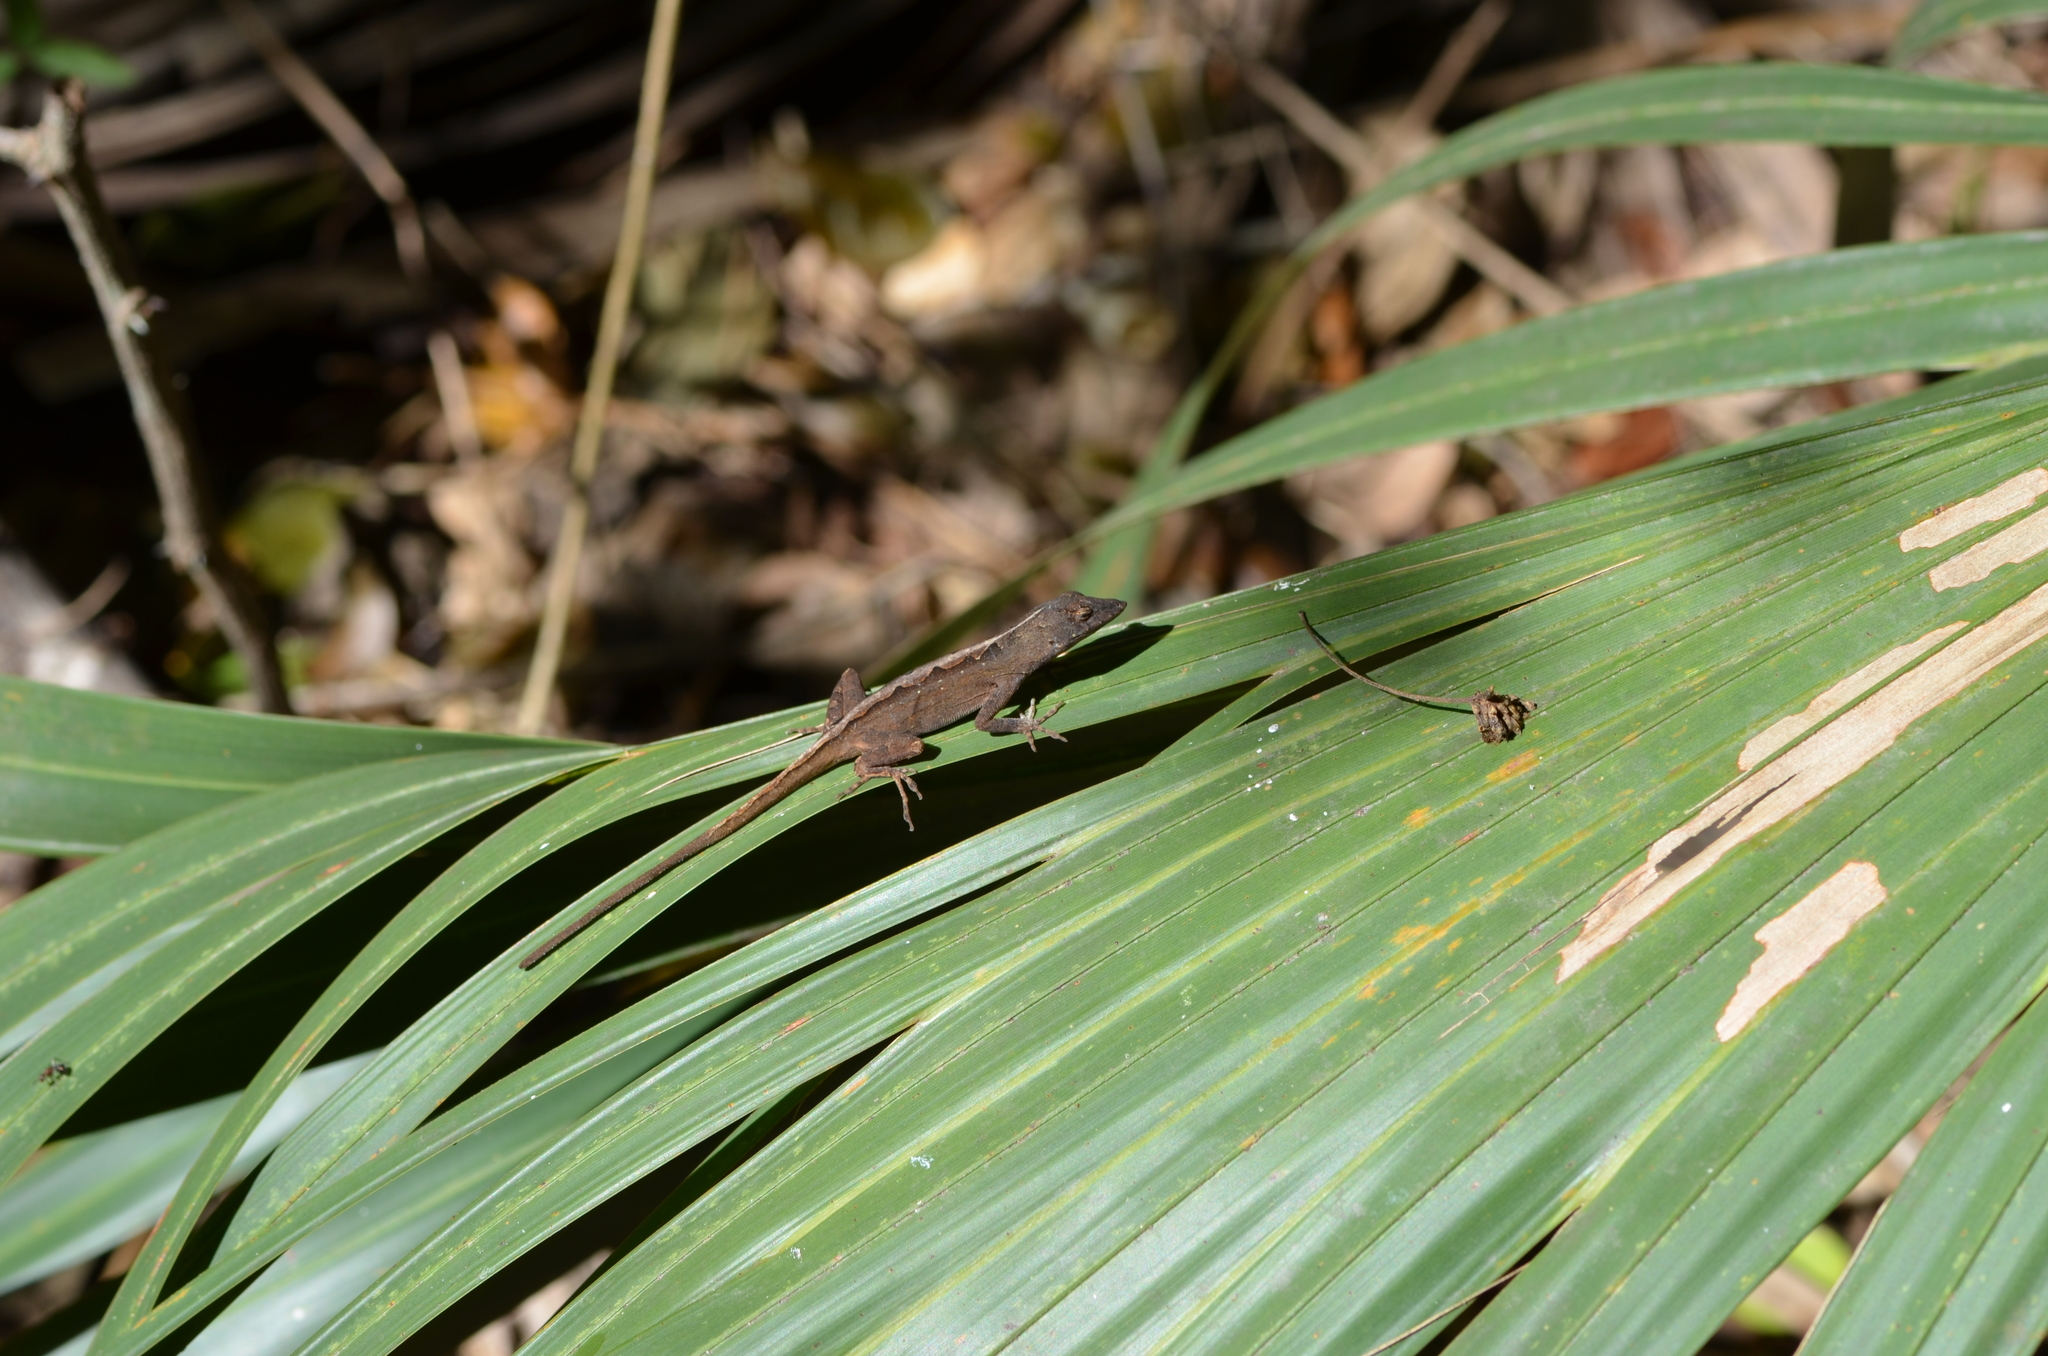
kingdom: Animalia
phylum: Chordata
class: Squamata
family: Dactyloidae
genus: Anolis
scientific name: Anolis sagrei
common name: Brown anole
